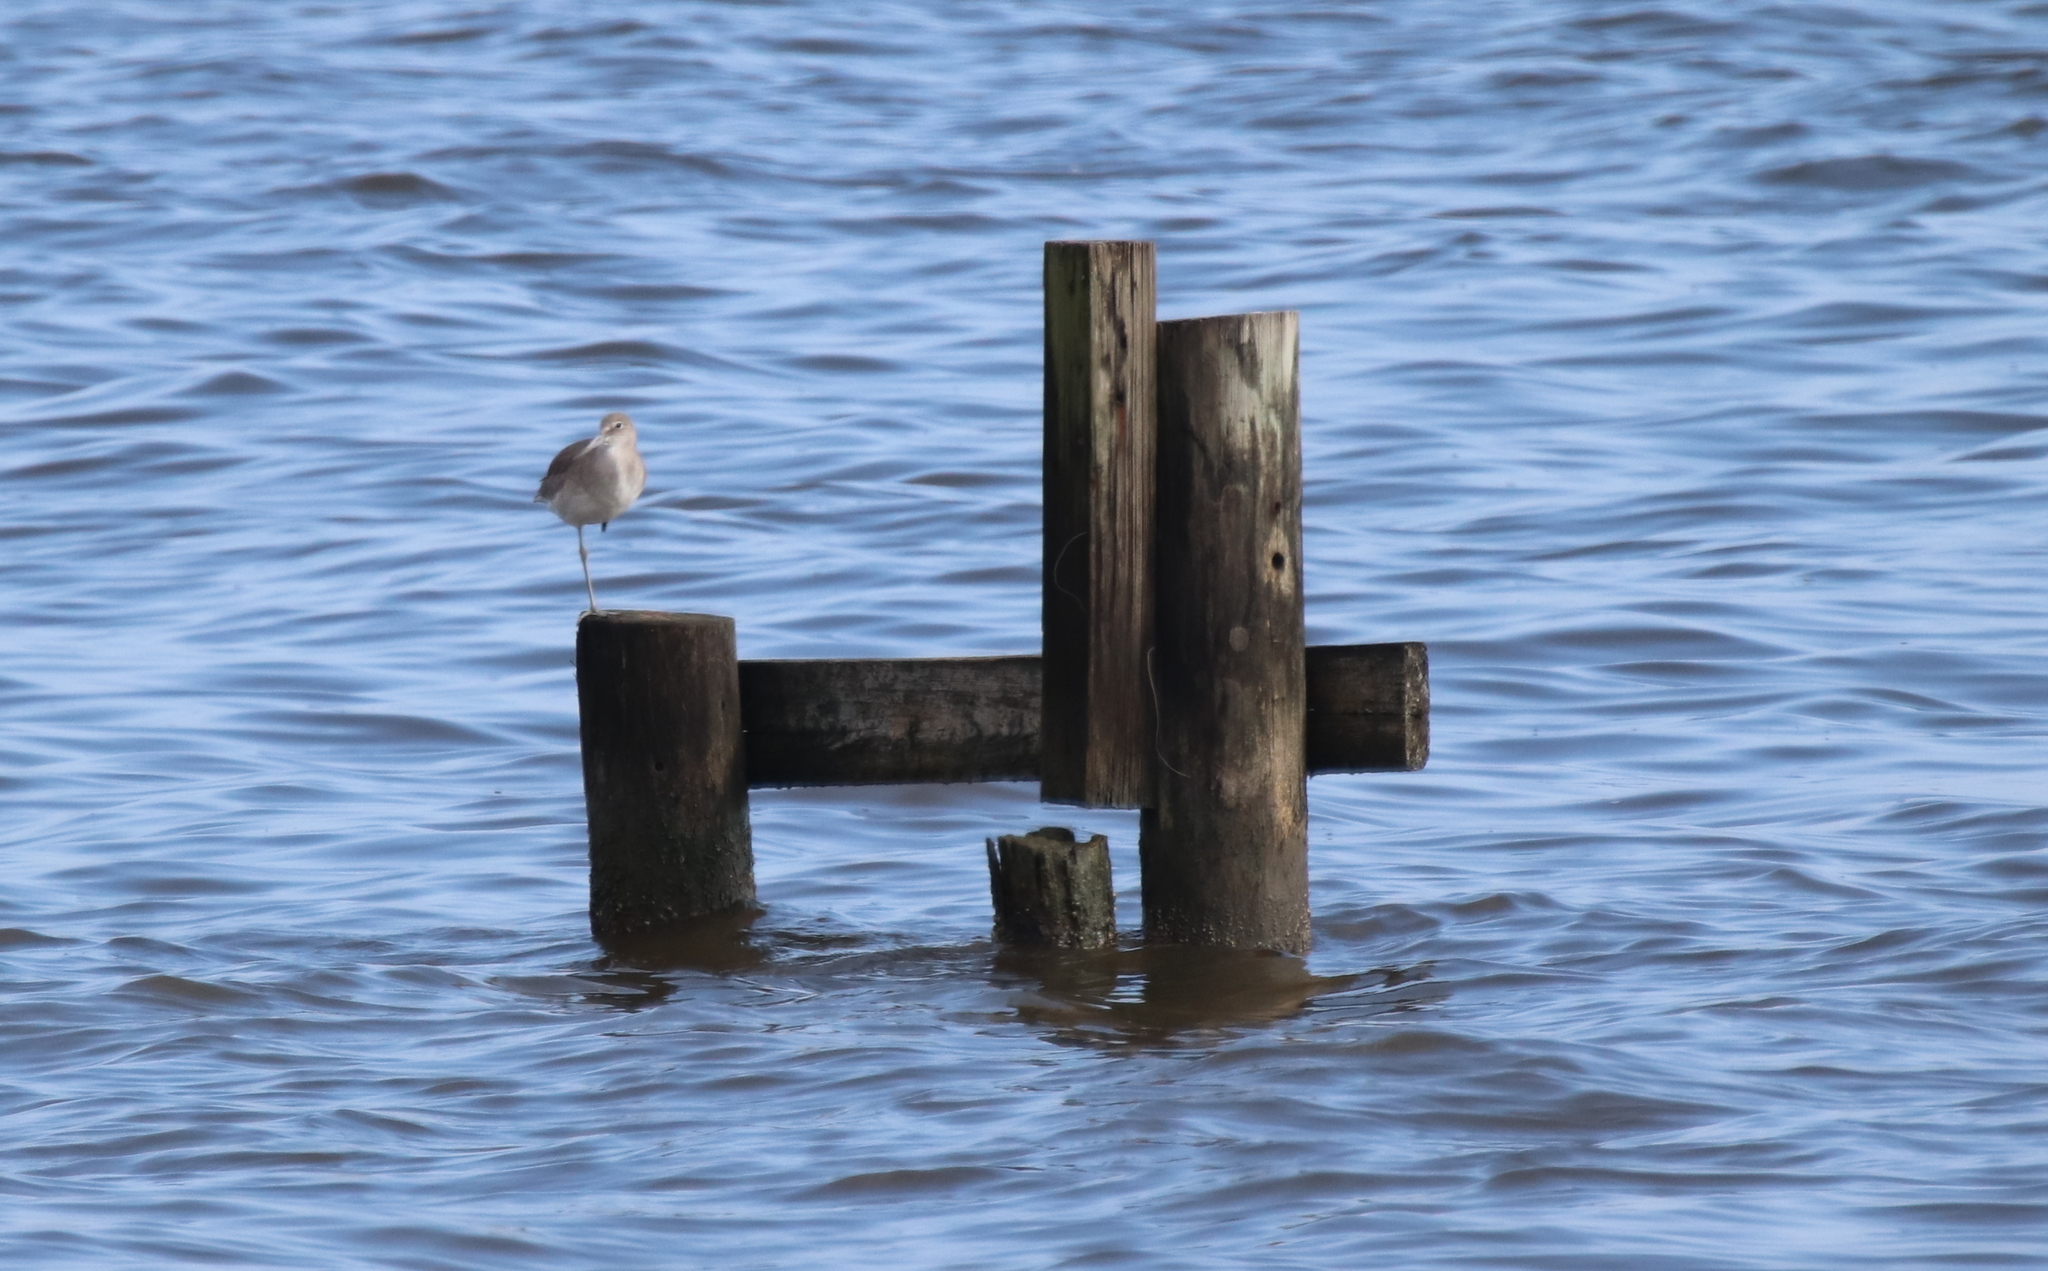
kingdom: Animalia
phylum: Chordata
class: Aves
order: Charadriiformes
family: Scolopacidae
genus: Tringa
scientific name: Tringa semipalmata
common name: Willet
